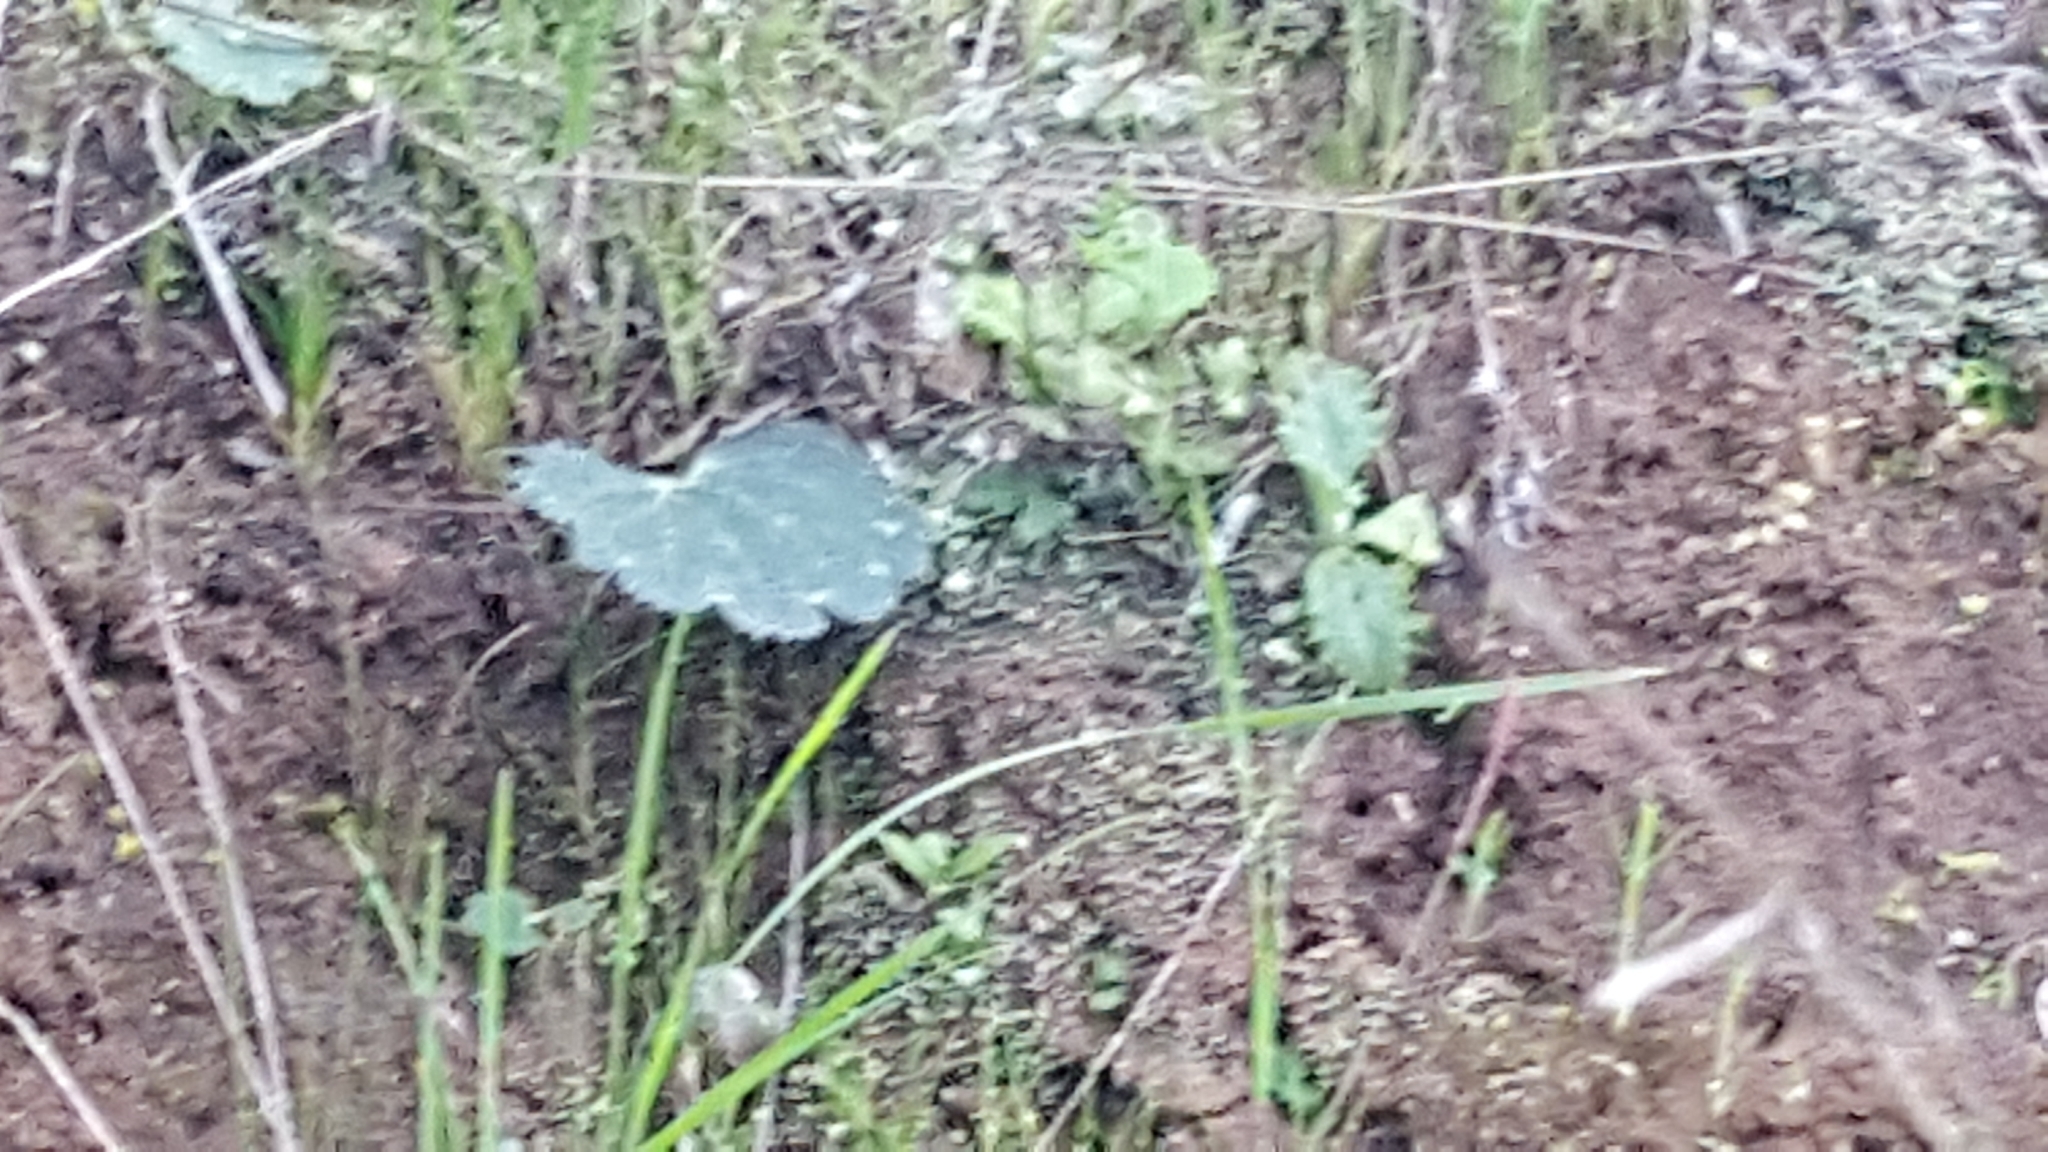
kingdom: Plantae
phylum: Tracheophyta
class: Magnoliopsida
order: Saxifragales
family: Saxifragaceae
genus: Jepsonia
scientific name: Jepsonia parryi
